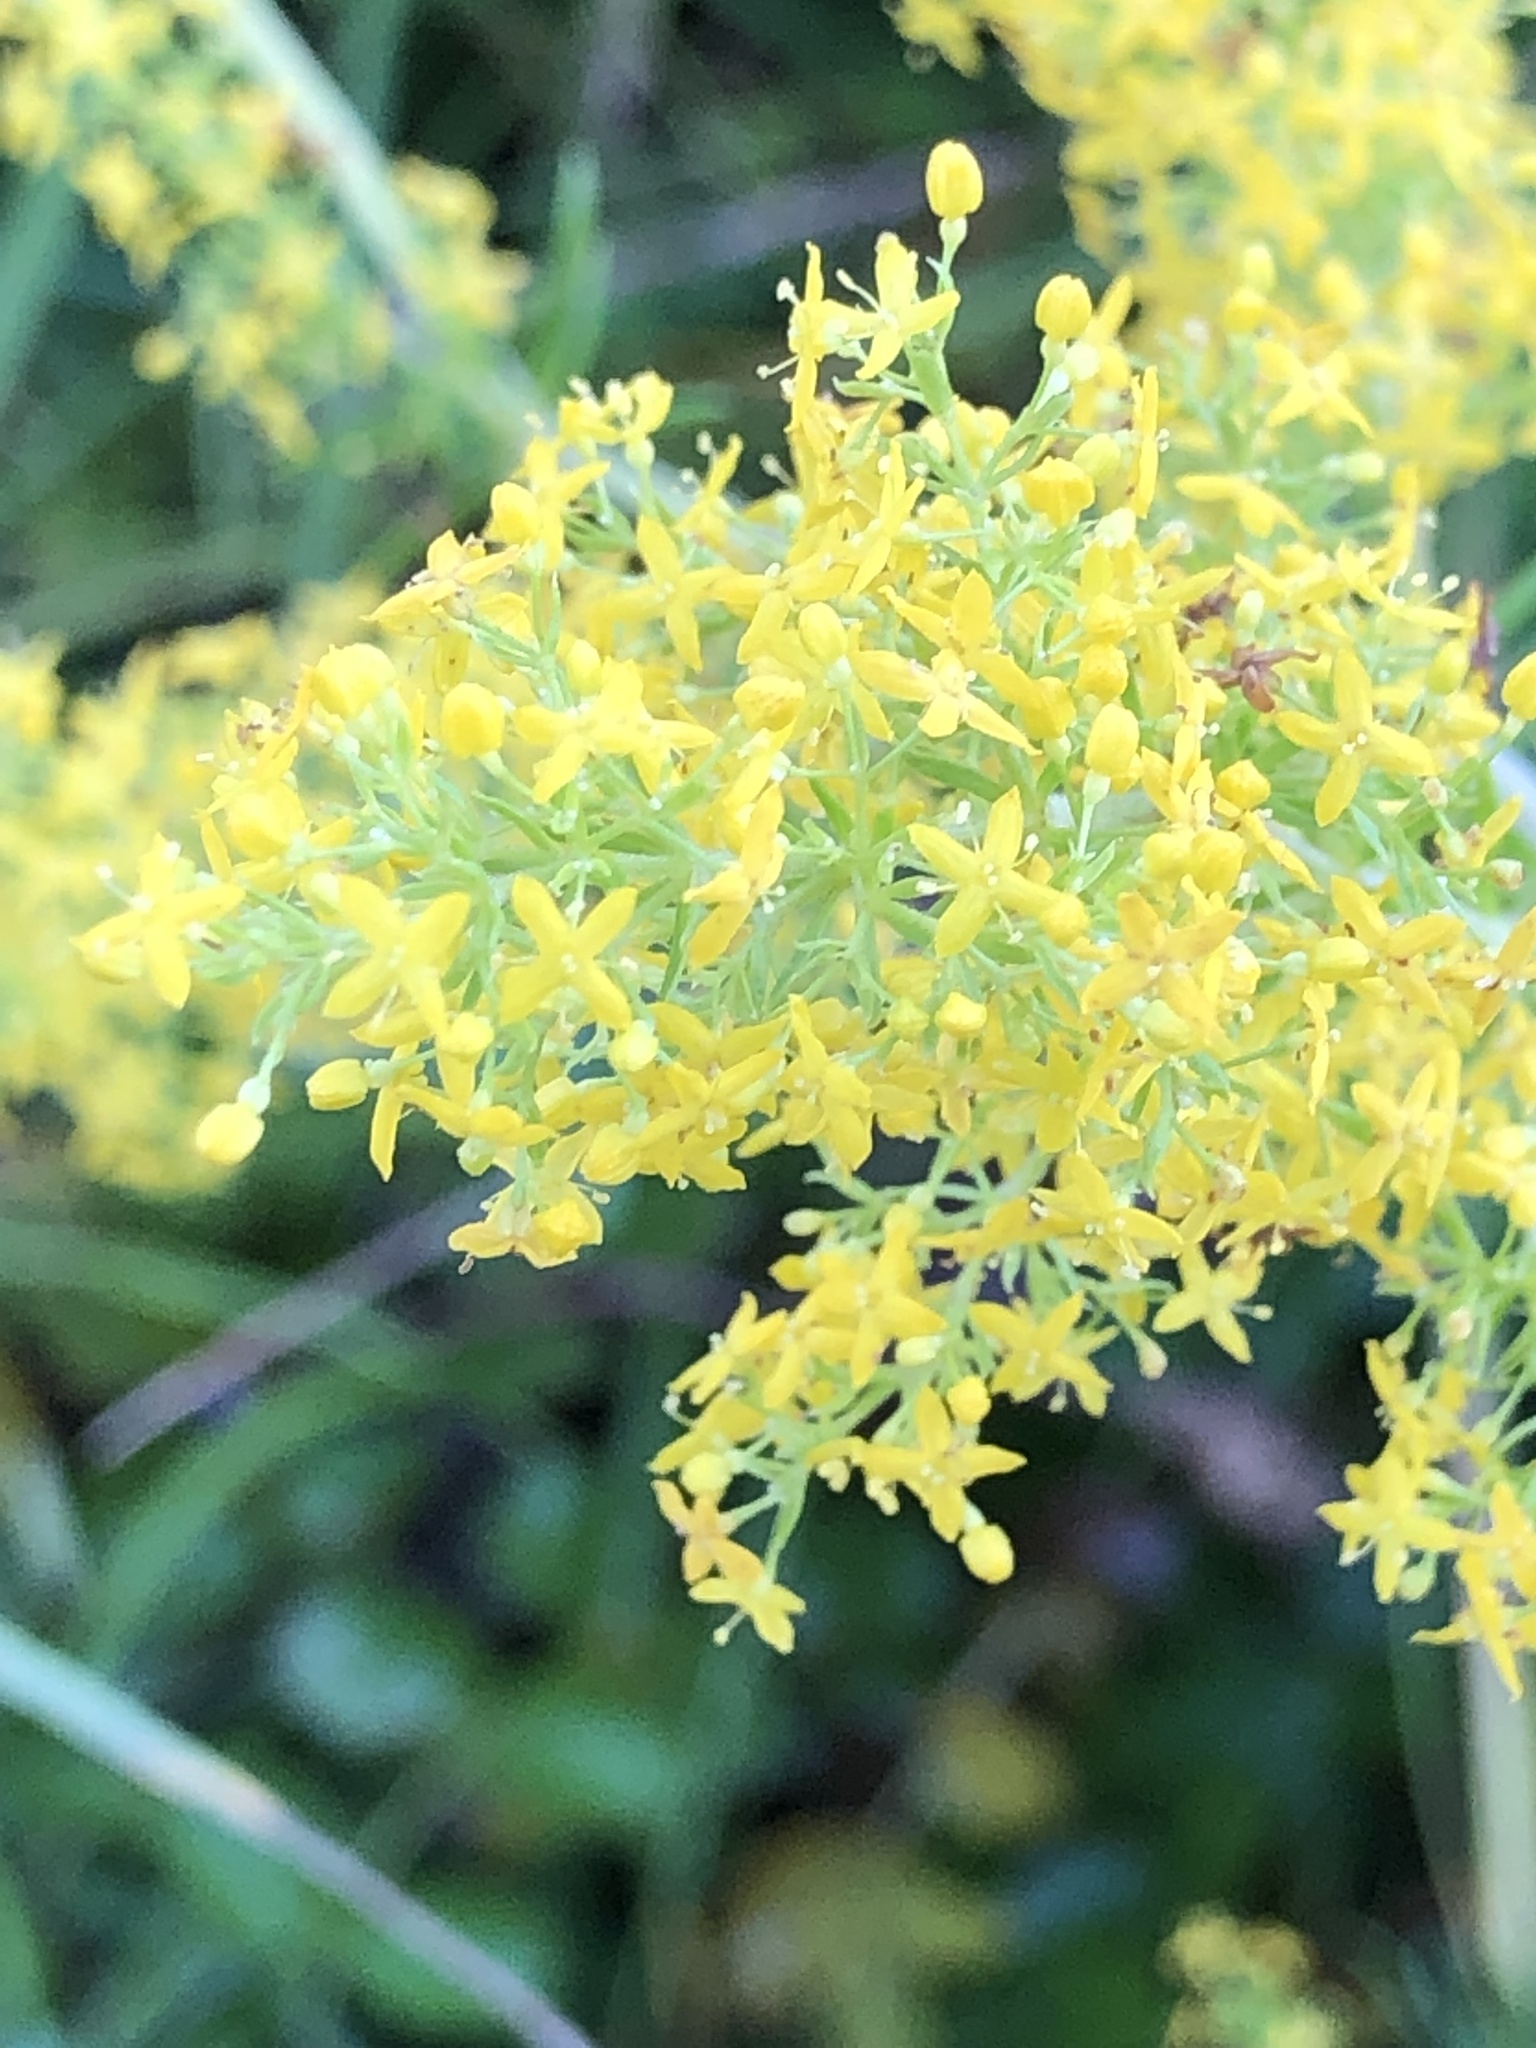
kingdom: Plantae
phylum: Tracheophyta
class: Magnoliopsida
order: Gentianales
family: Rubiaceae
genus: Galium
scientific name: Galium verum
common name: Lady's bedstraw
